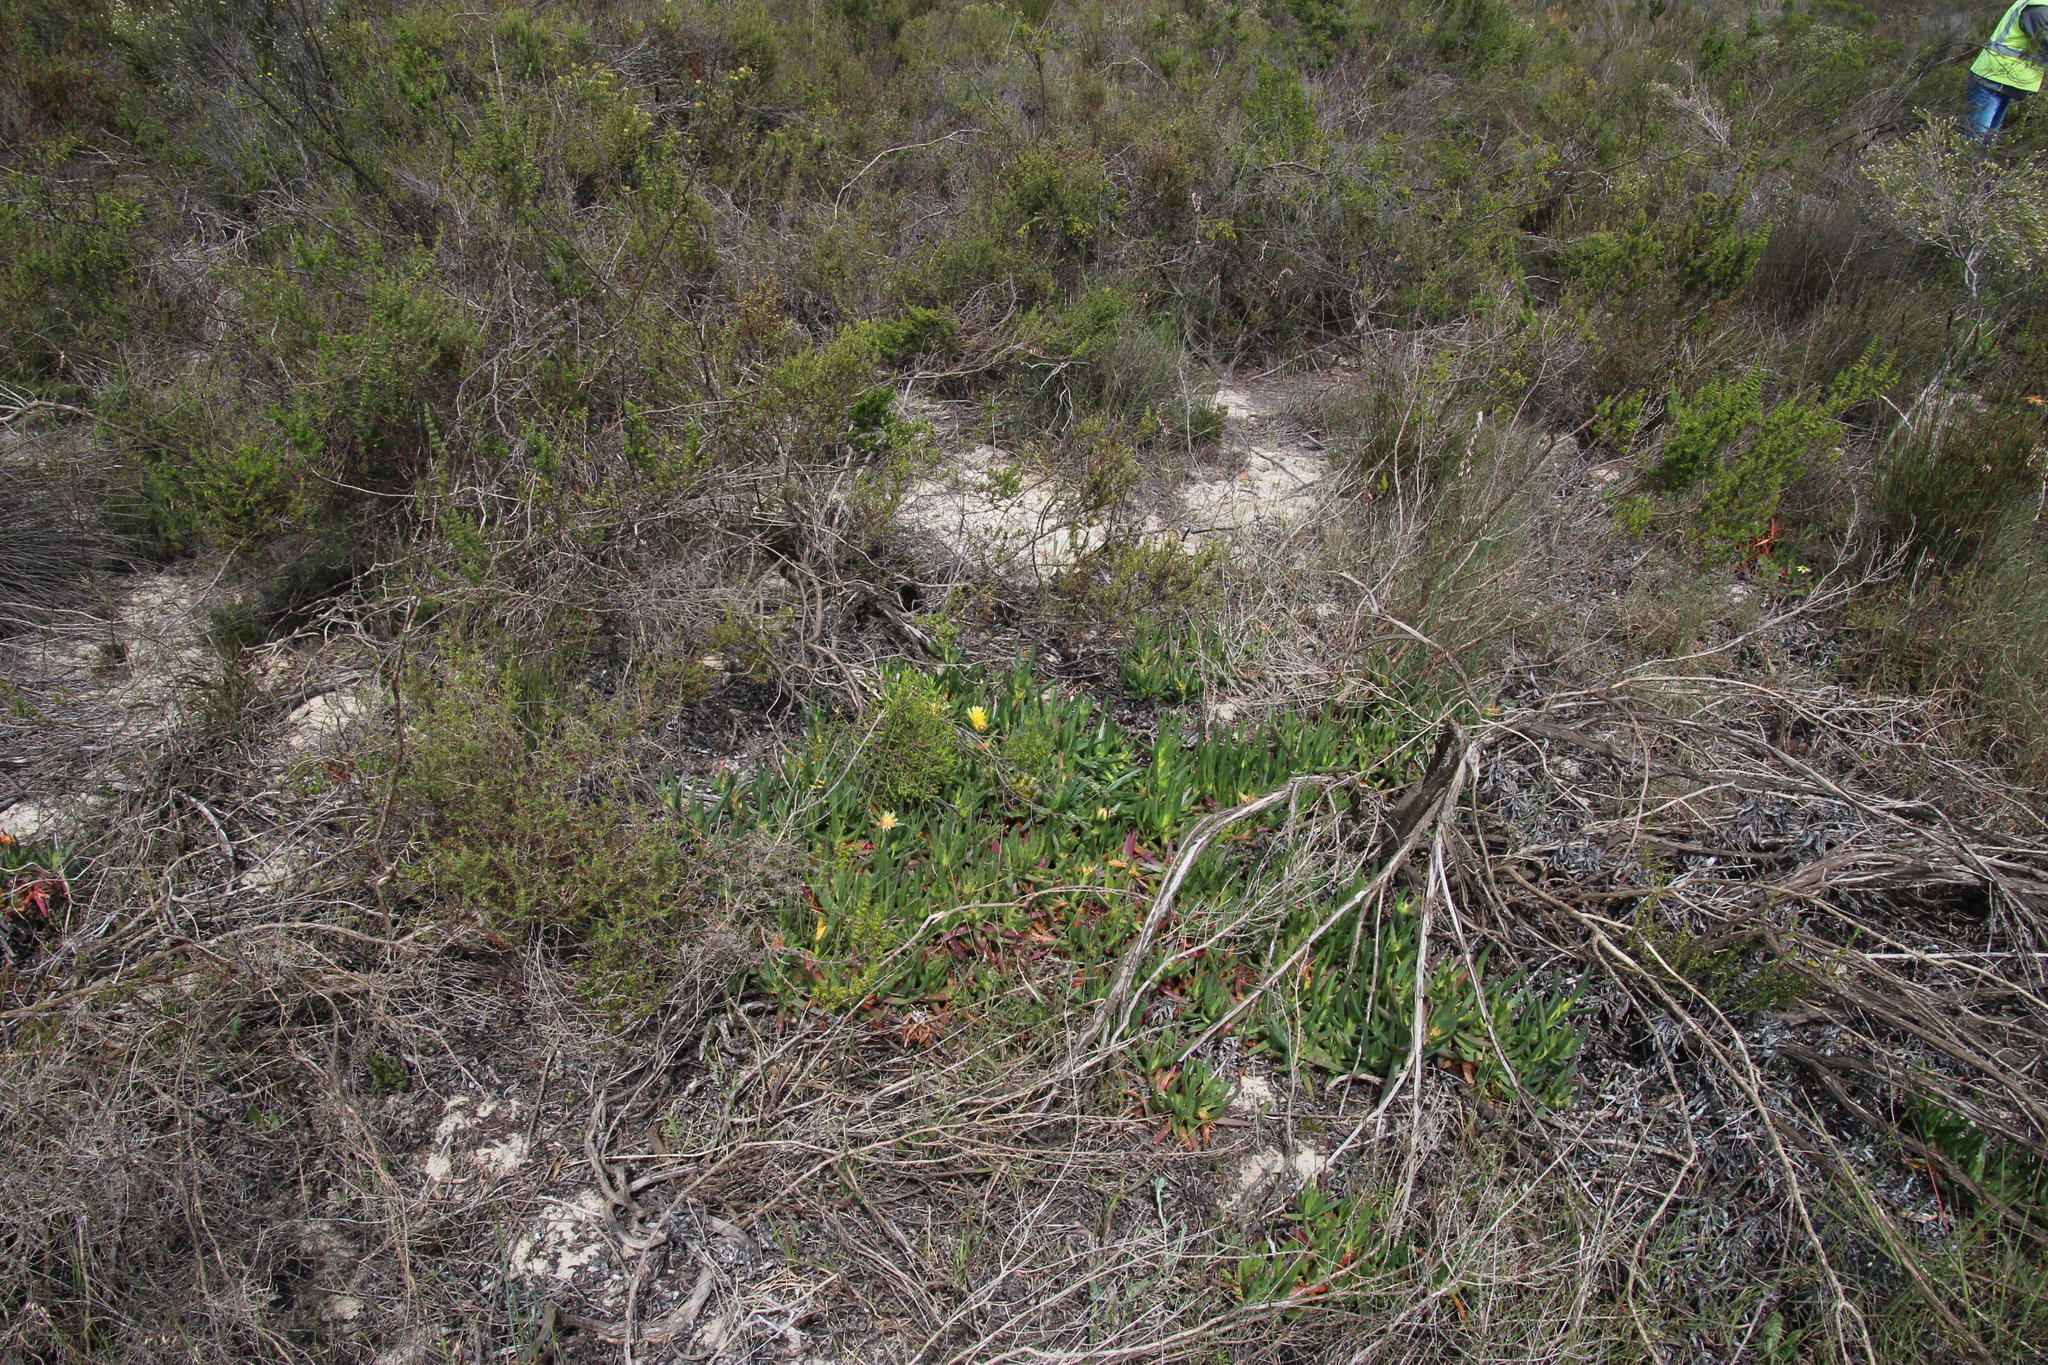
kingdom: Plantae
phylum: Tracheophyta
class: Magnoliopsida
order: Caryophyllales
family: Aizoaceae
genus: Carpobrotus
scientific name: Carpobrotus edulis
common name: Hottentot-fig
